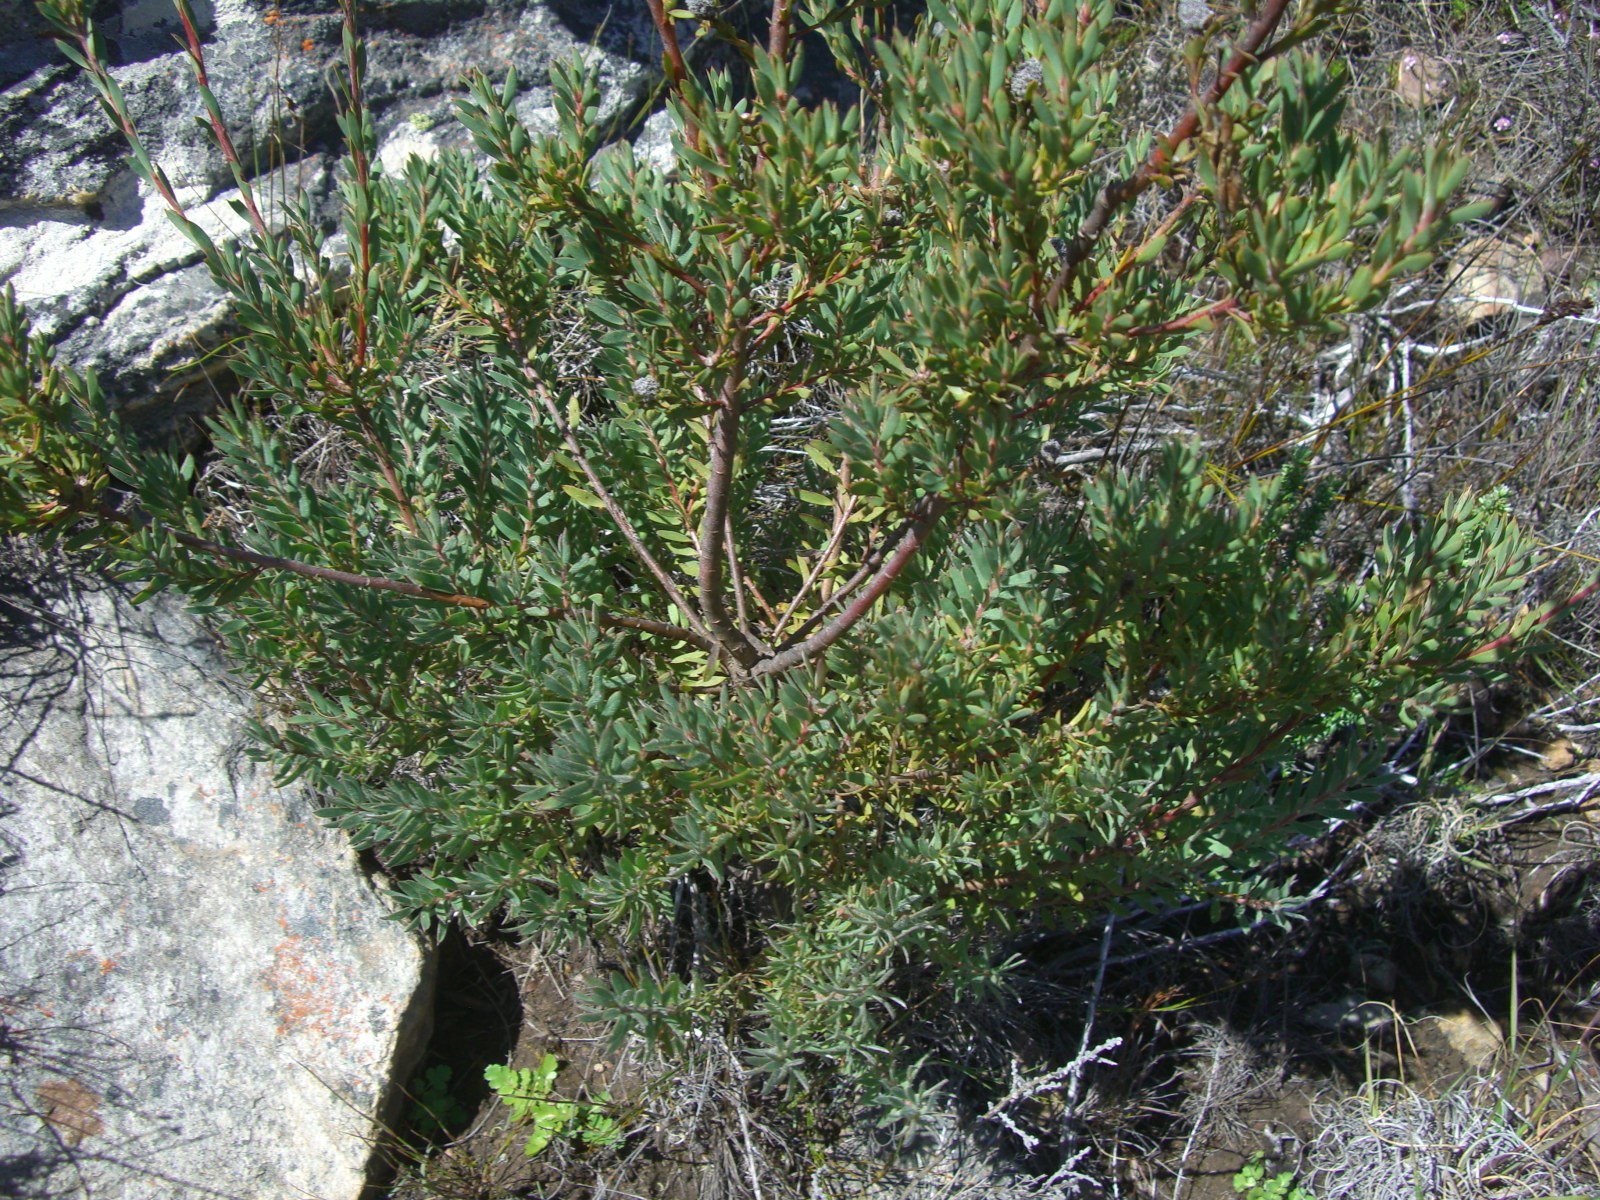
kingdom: Plantae
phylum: Tracheophyta
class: Magnoliopsida
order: Proteales
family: Proteaceae
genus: Leucadendron
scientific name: Leucadendron rourkei
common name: Uniondale conebush
